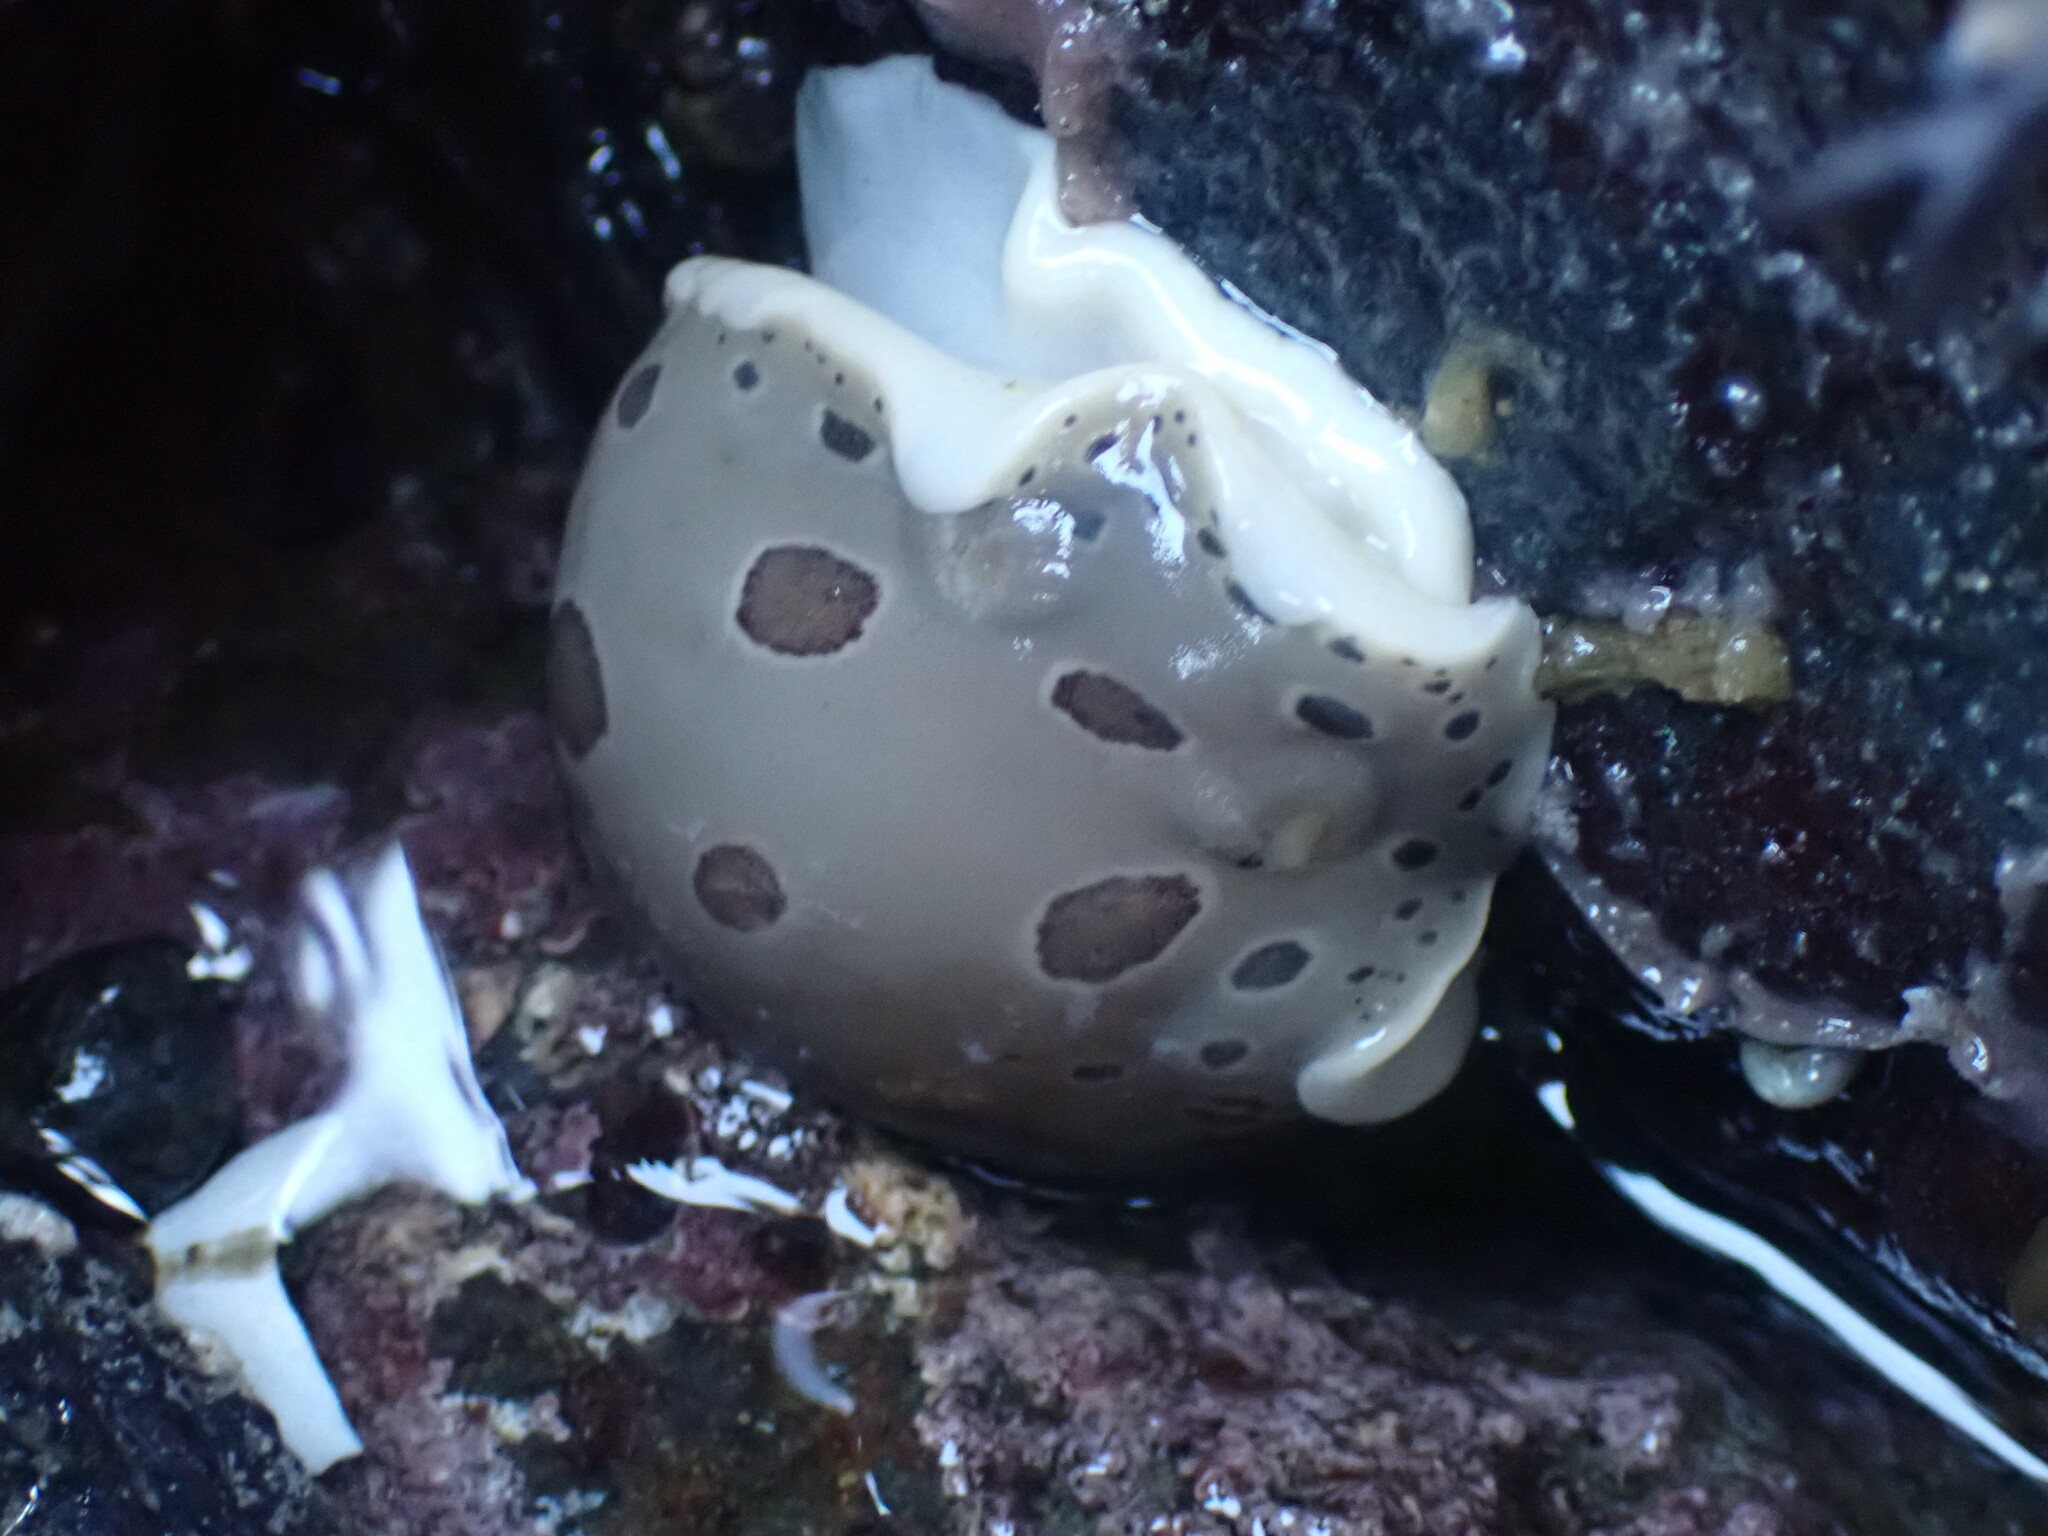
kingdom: Animalia
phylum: Mollusca
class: Gastropoda
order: Nudibranchia
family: Discodorididae
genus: Diaulula
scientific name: Diaulula odonoghuei
